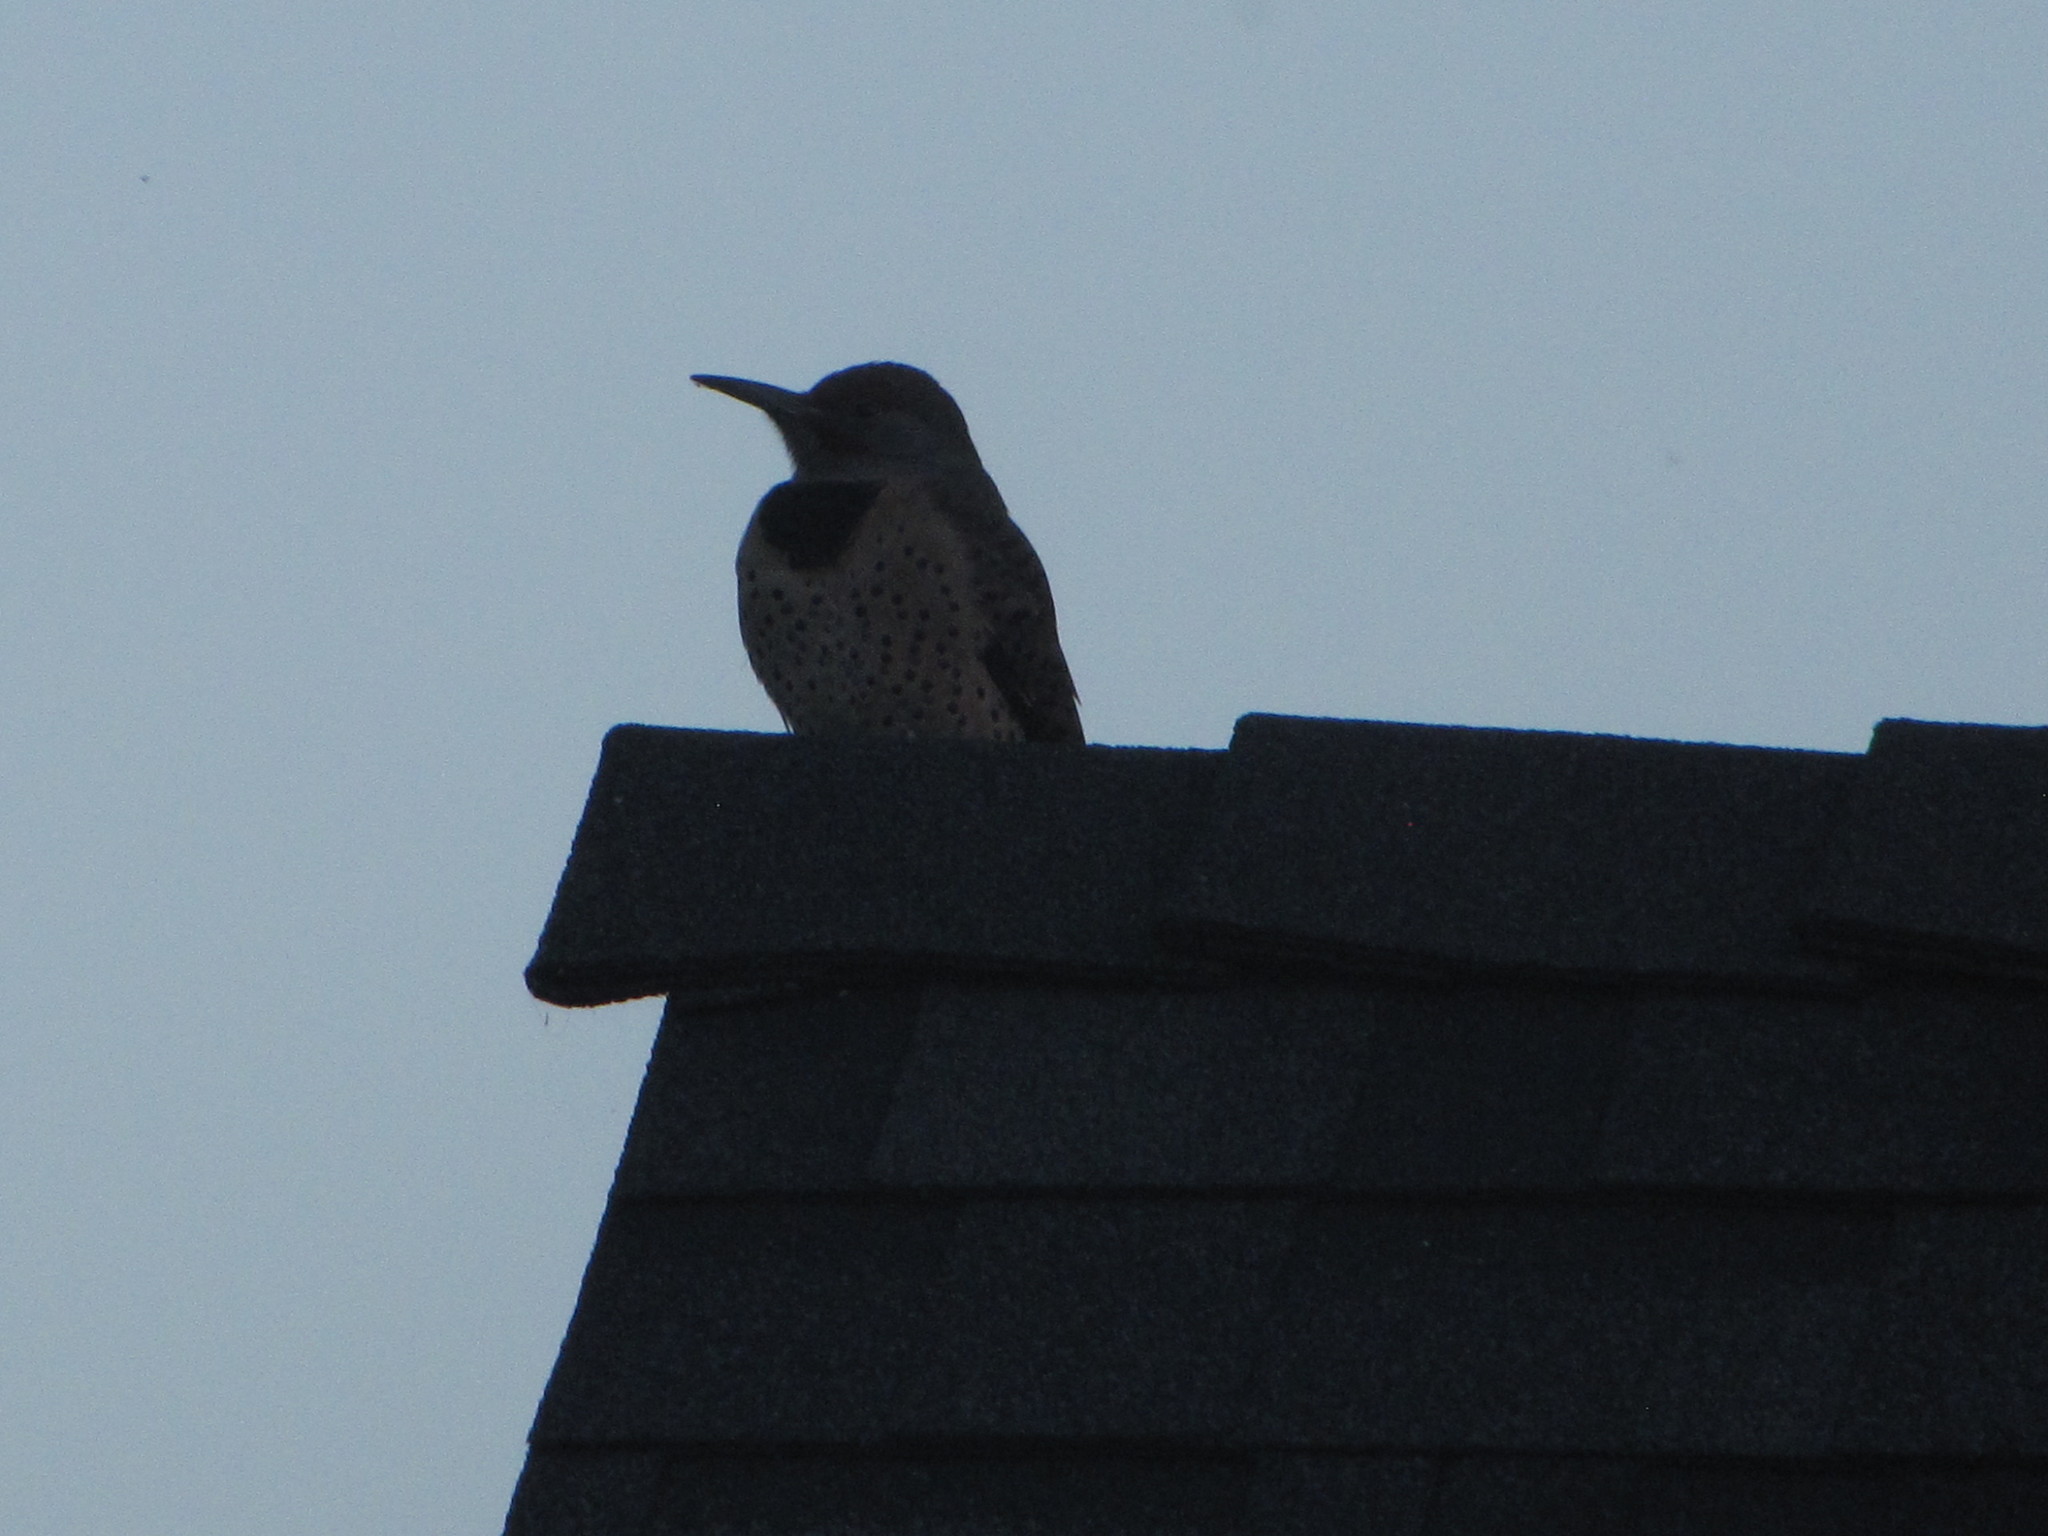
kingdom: Animalia
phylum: Chordata
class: Aves
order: Piciformes
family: Picidae
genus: Colaptes
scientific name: Colaptes auratus
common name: Northern flicker
